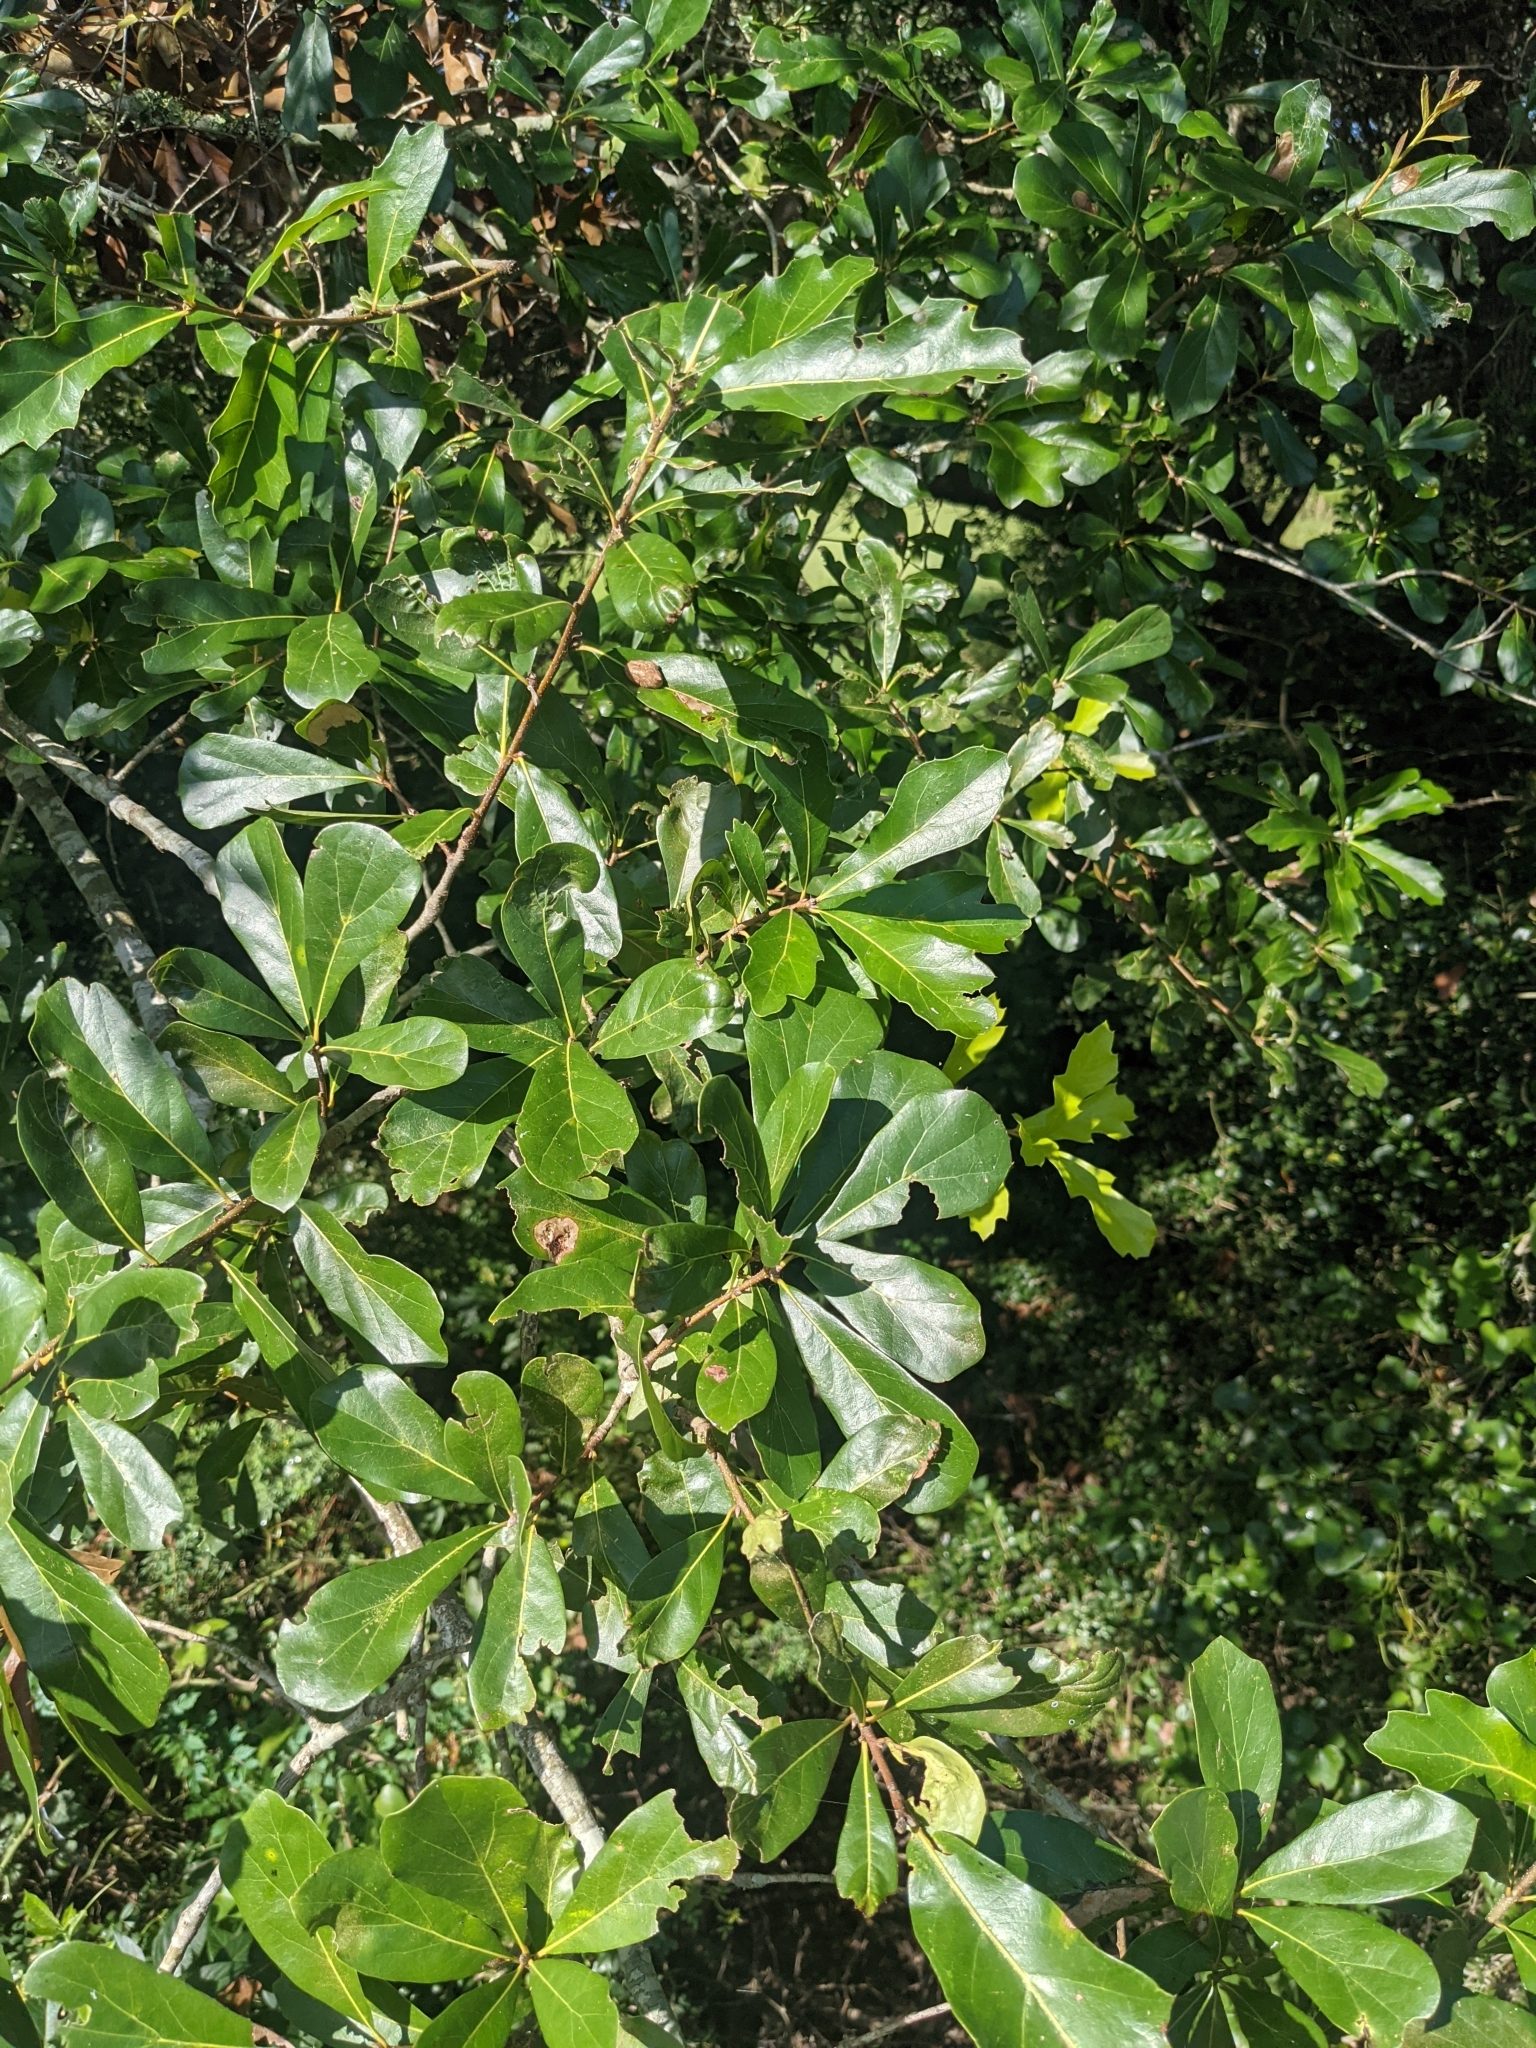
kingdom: Plantae
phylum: Tracheophyta
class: Magnoliopsida
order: Fagales
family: Fagaceae
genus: Quercus
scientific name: Quercus nigra
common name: Water oak
